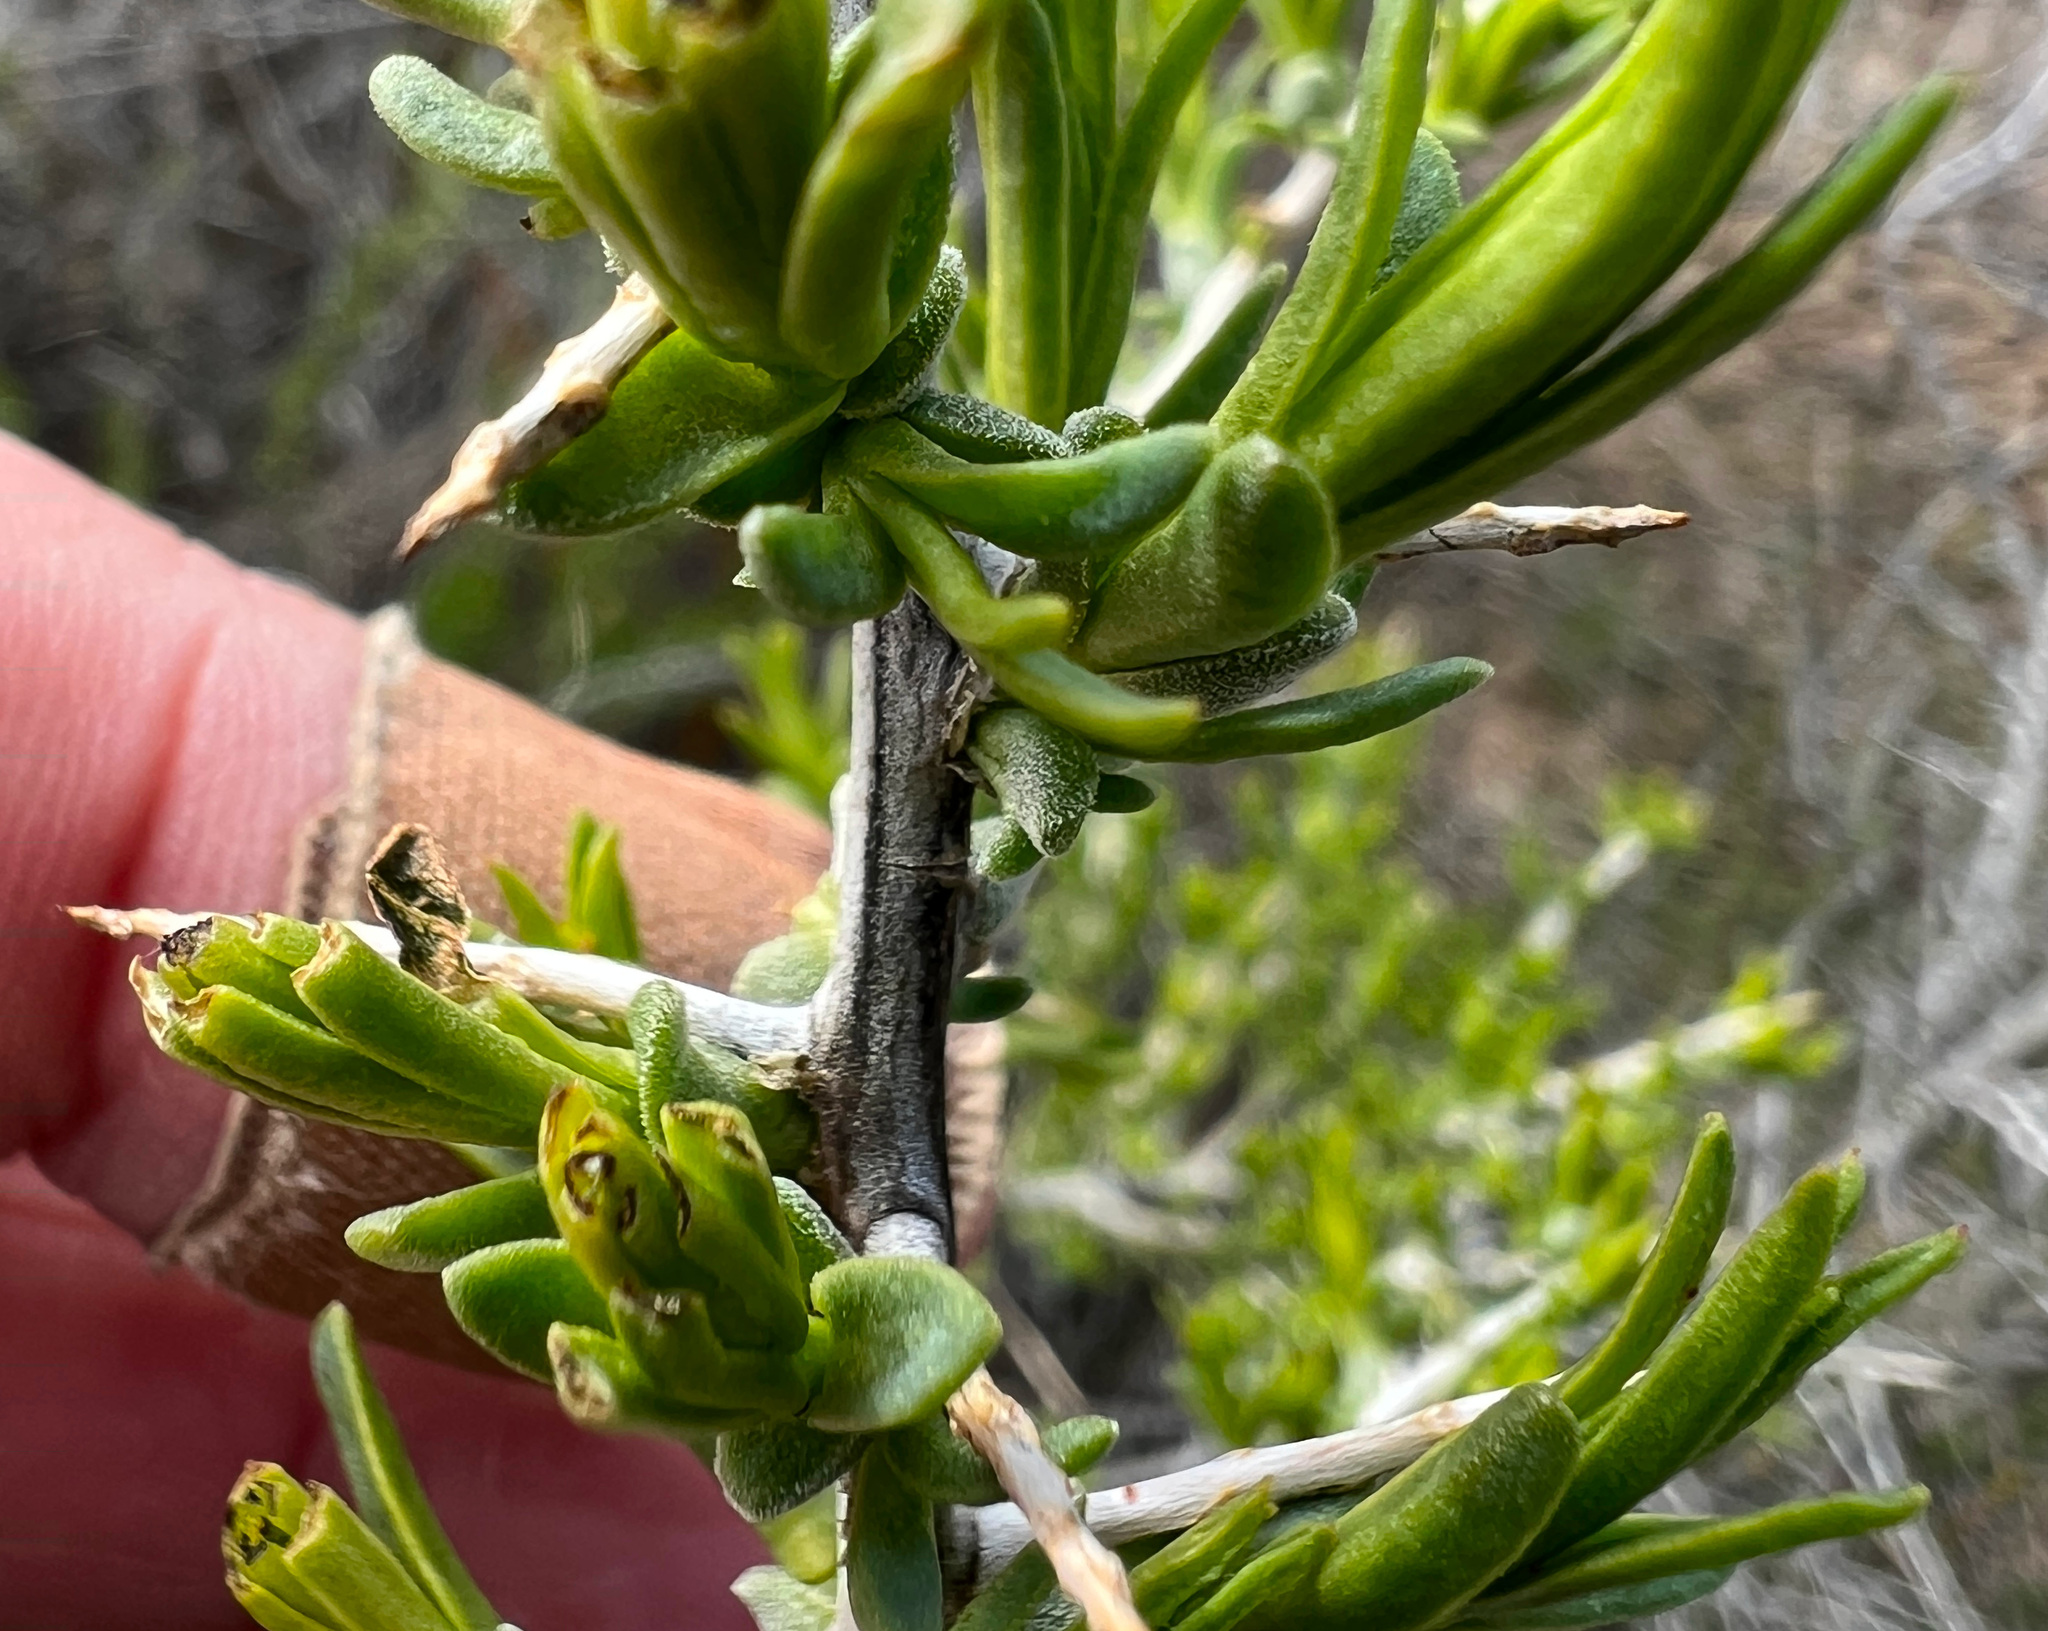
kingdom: Plantae
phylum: Tracheophyta
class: Magnoliopsida
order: Caryophyllales
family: Sarcobataceae
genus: Sarcobatus
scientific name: Sarcobatus vermiculatus
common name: Greasewood
